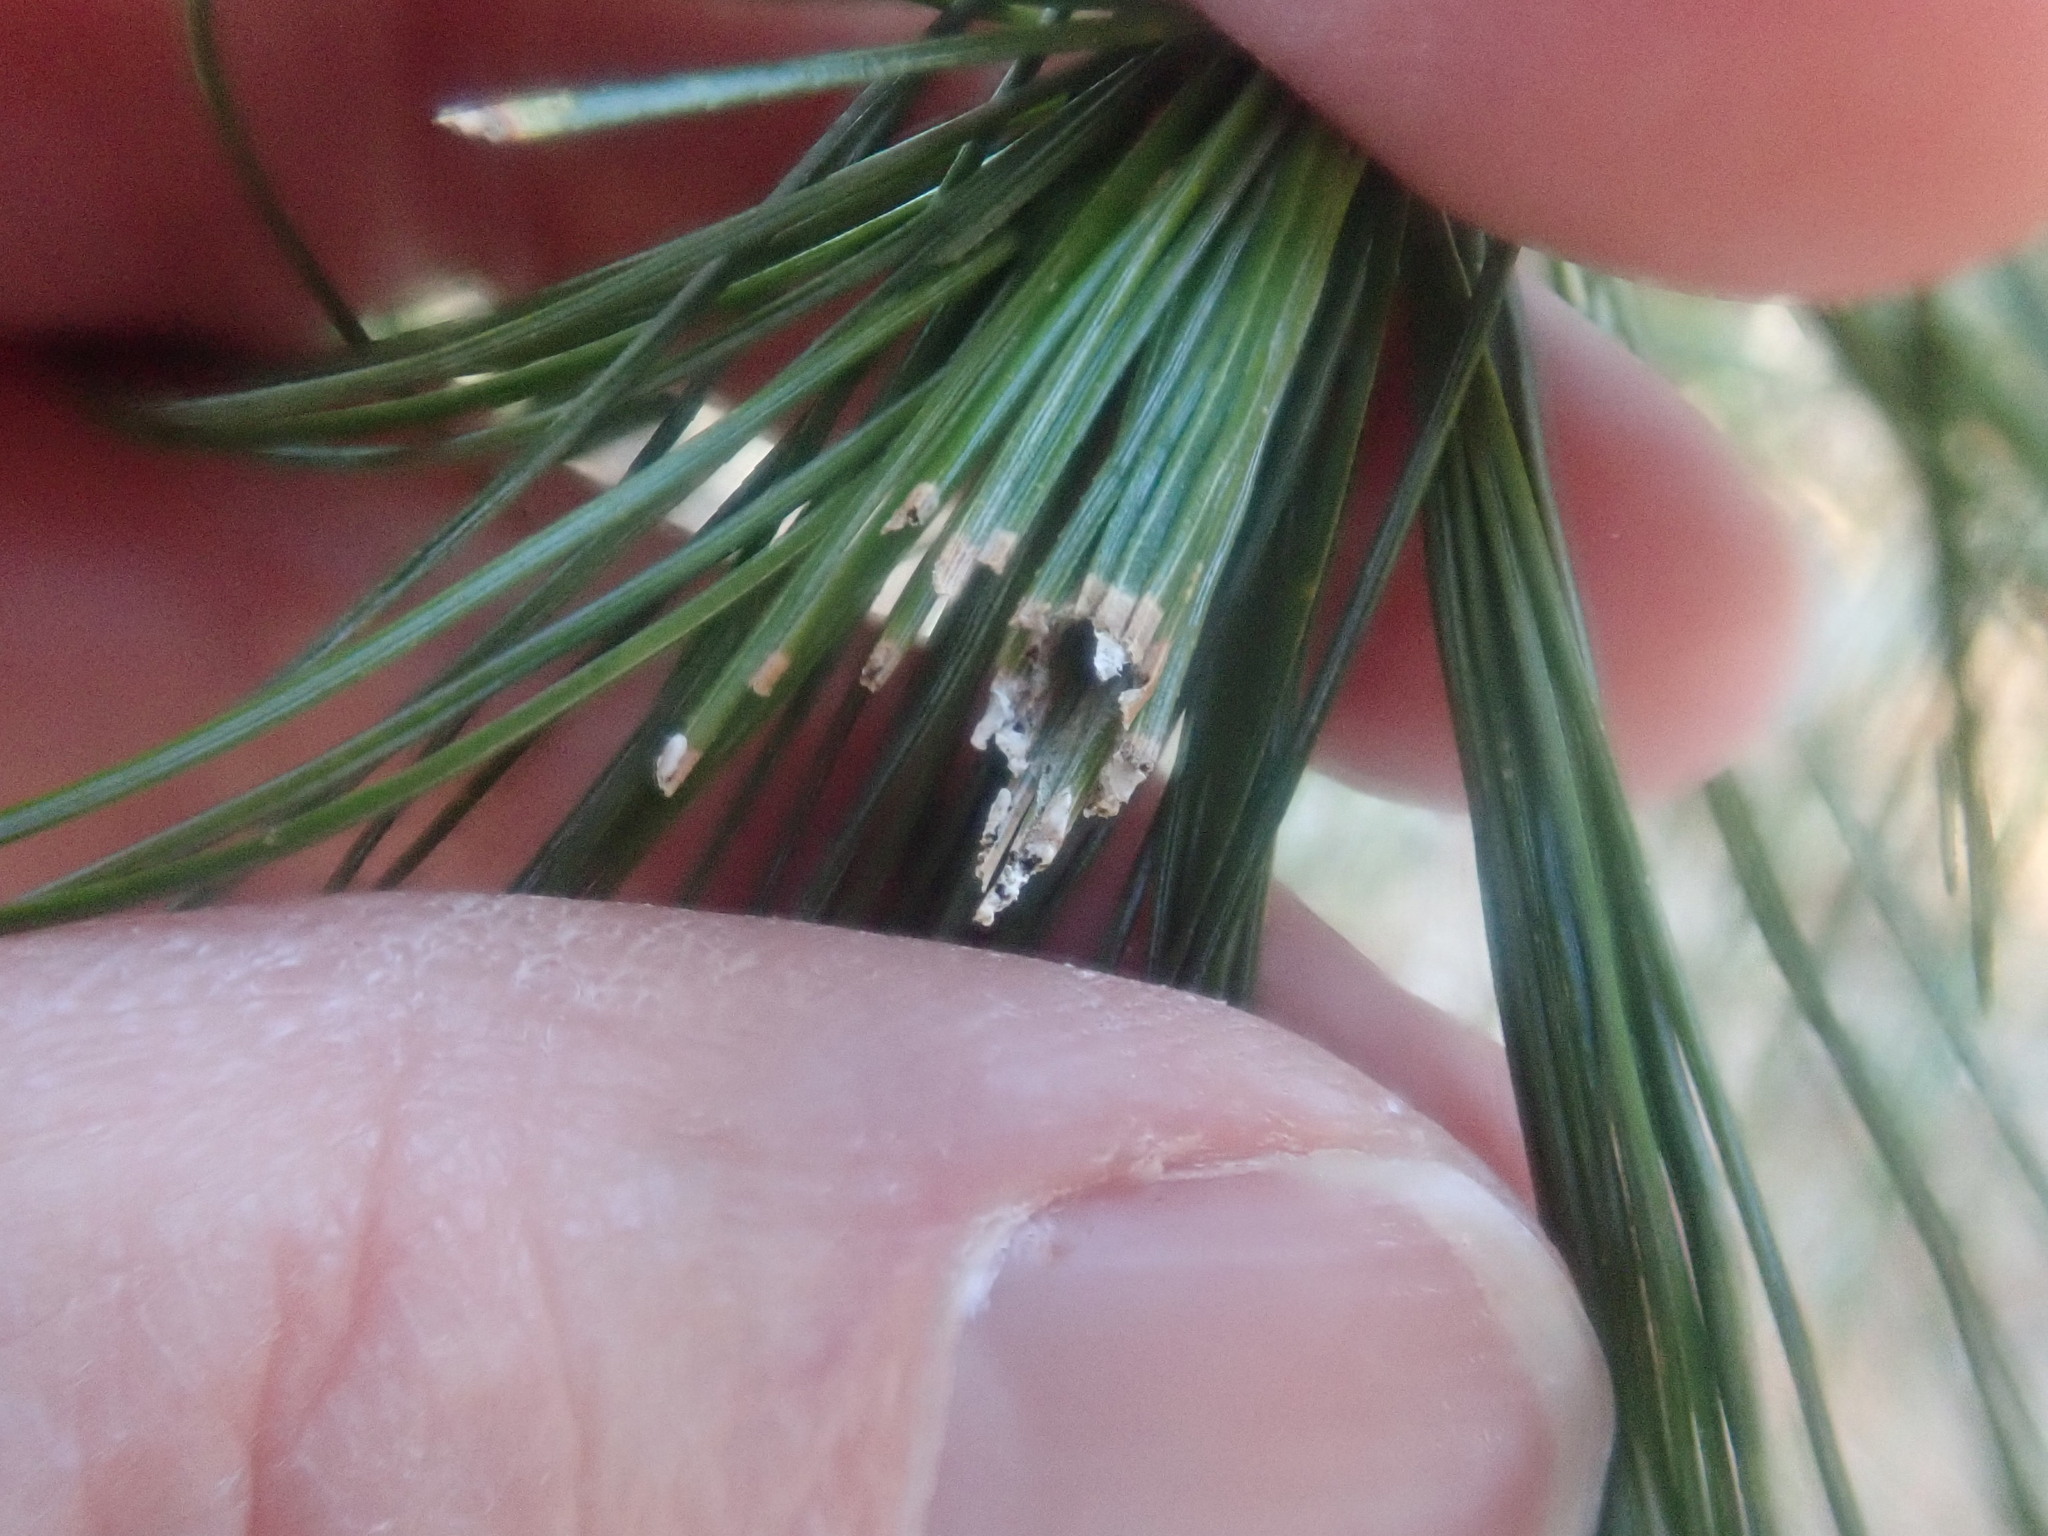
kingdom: Animalia
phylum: Arthropoda
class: Insecta
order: Lepidoptera
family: Tortricidae
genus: Argyrotaenia
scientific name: Argyrotaenia pinatubana
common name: Pine tube moth
